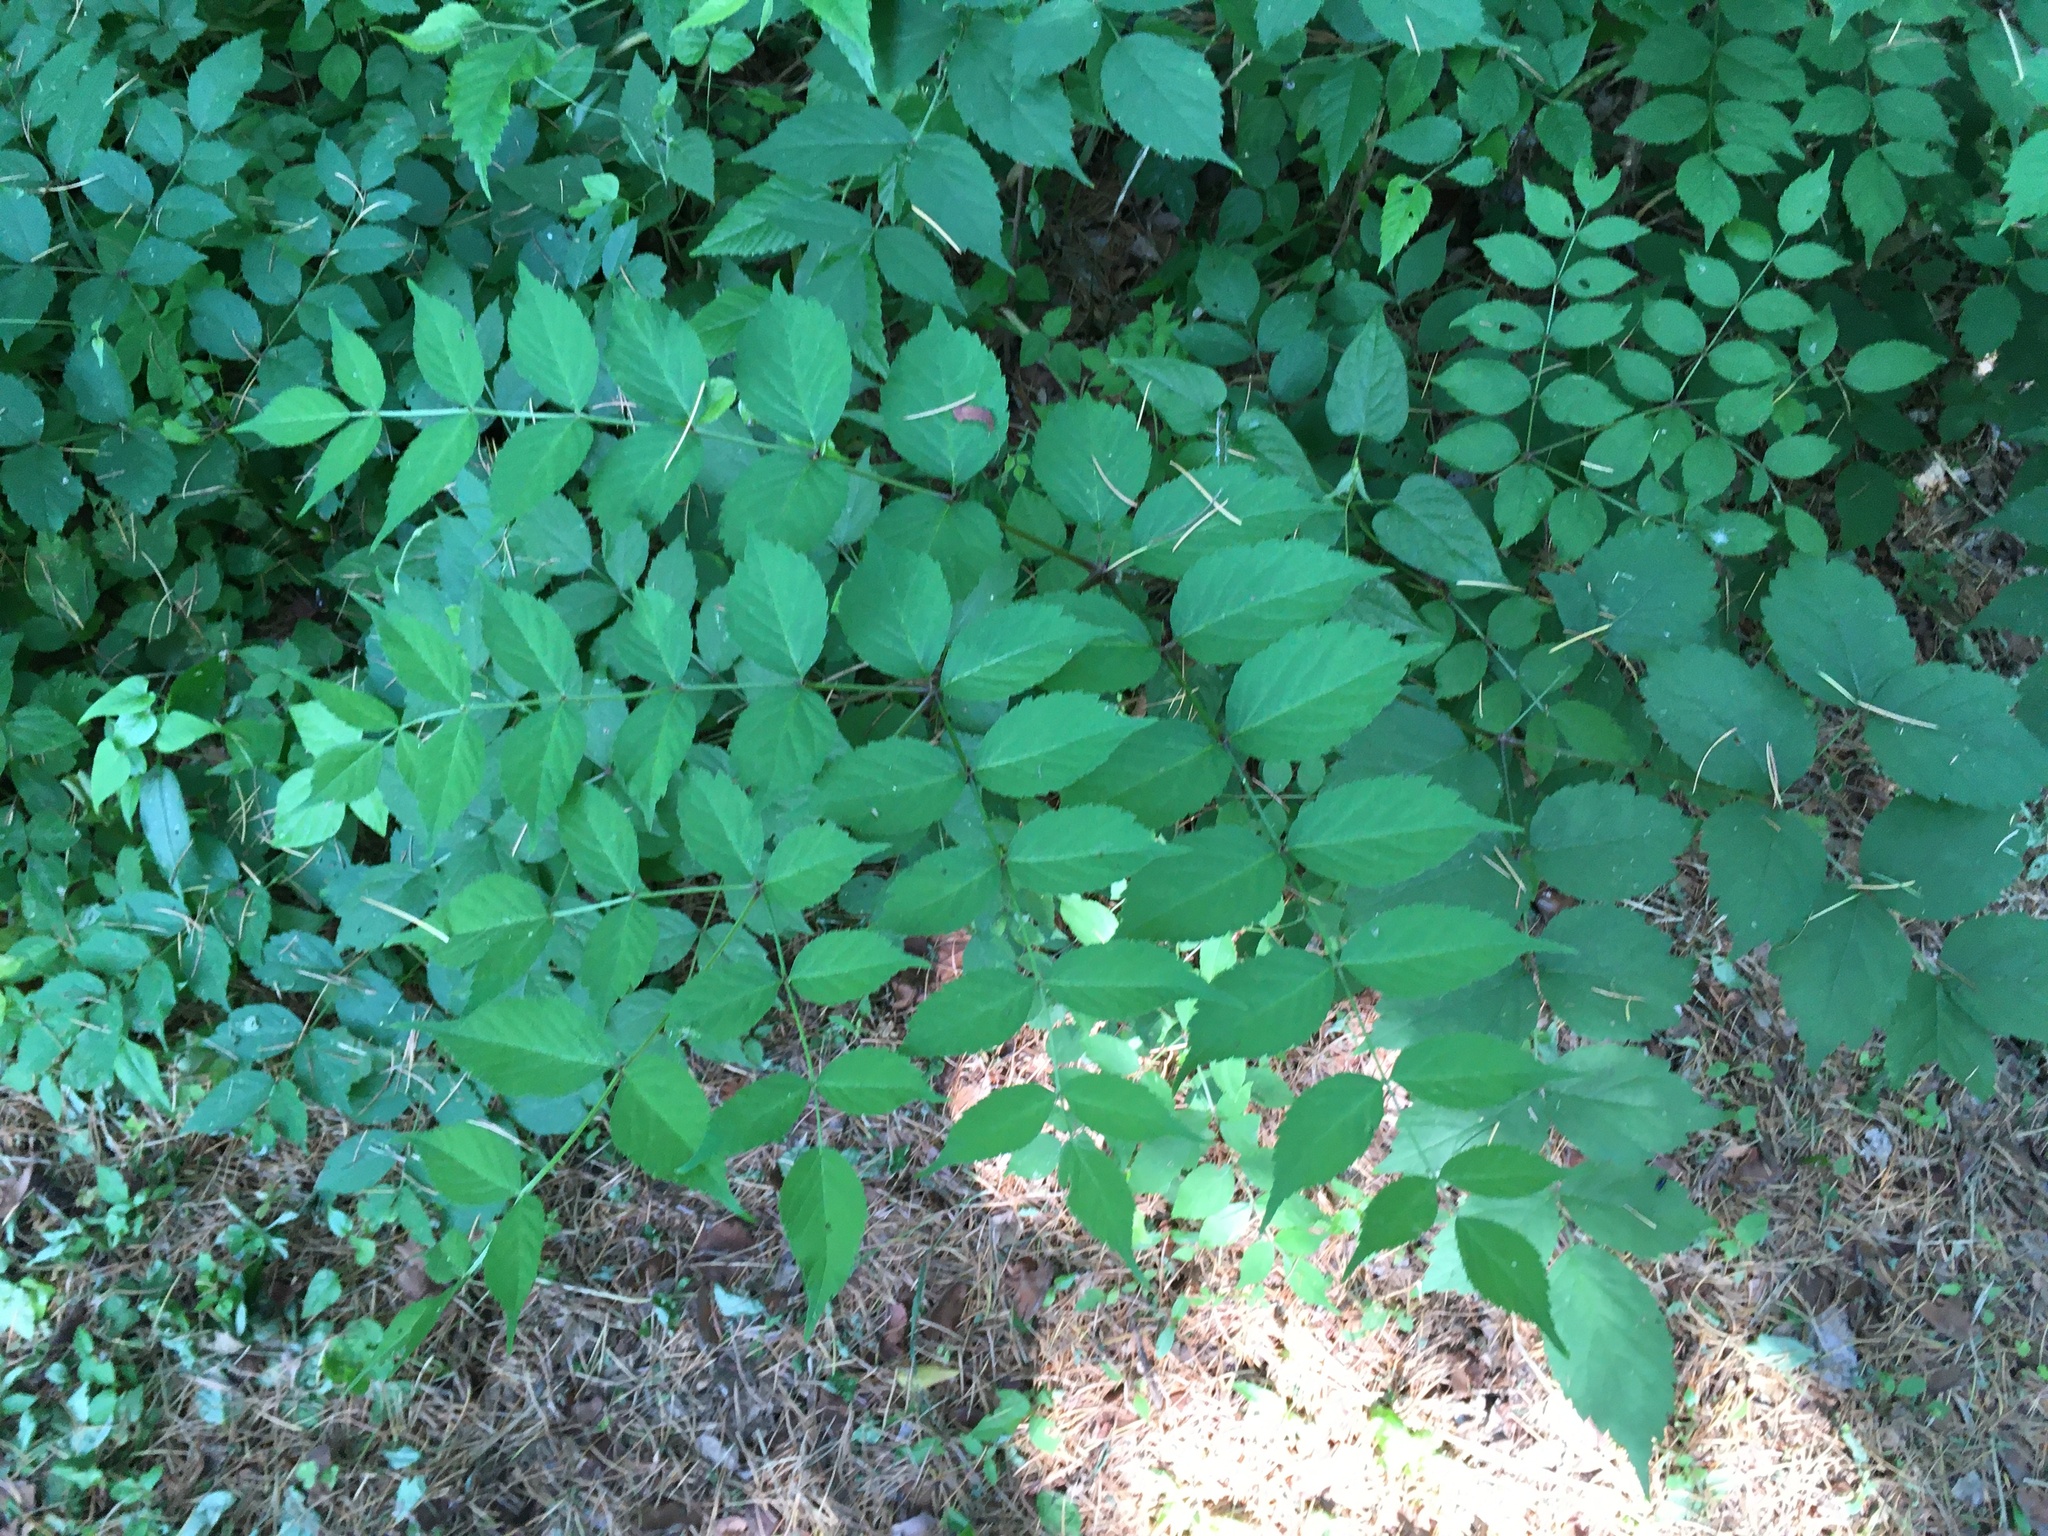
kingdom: Plantae
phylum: Tracheophyta
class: Magnoliopsida
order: Apiales
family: Araliaceae
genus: Aralia
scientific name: Aralia elata
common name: Japanese angelica-tree
